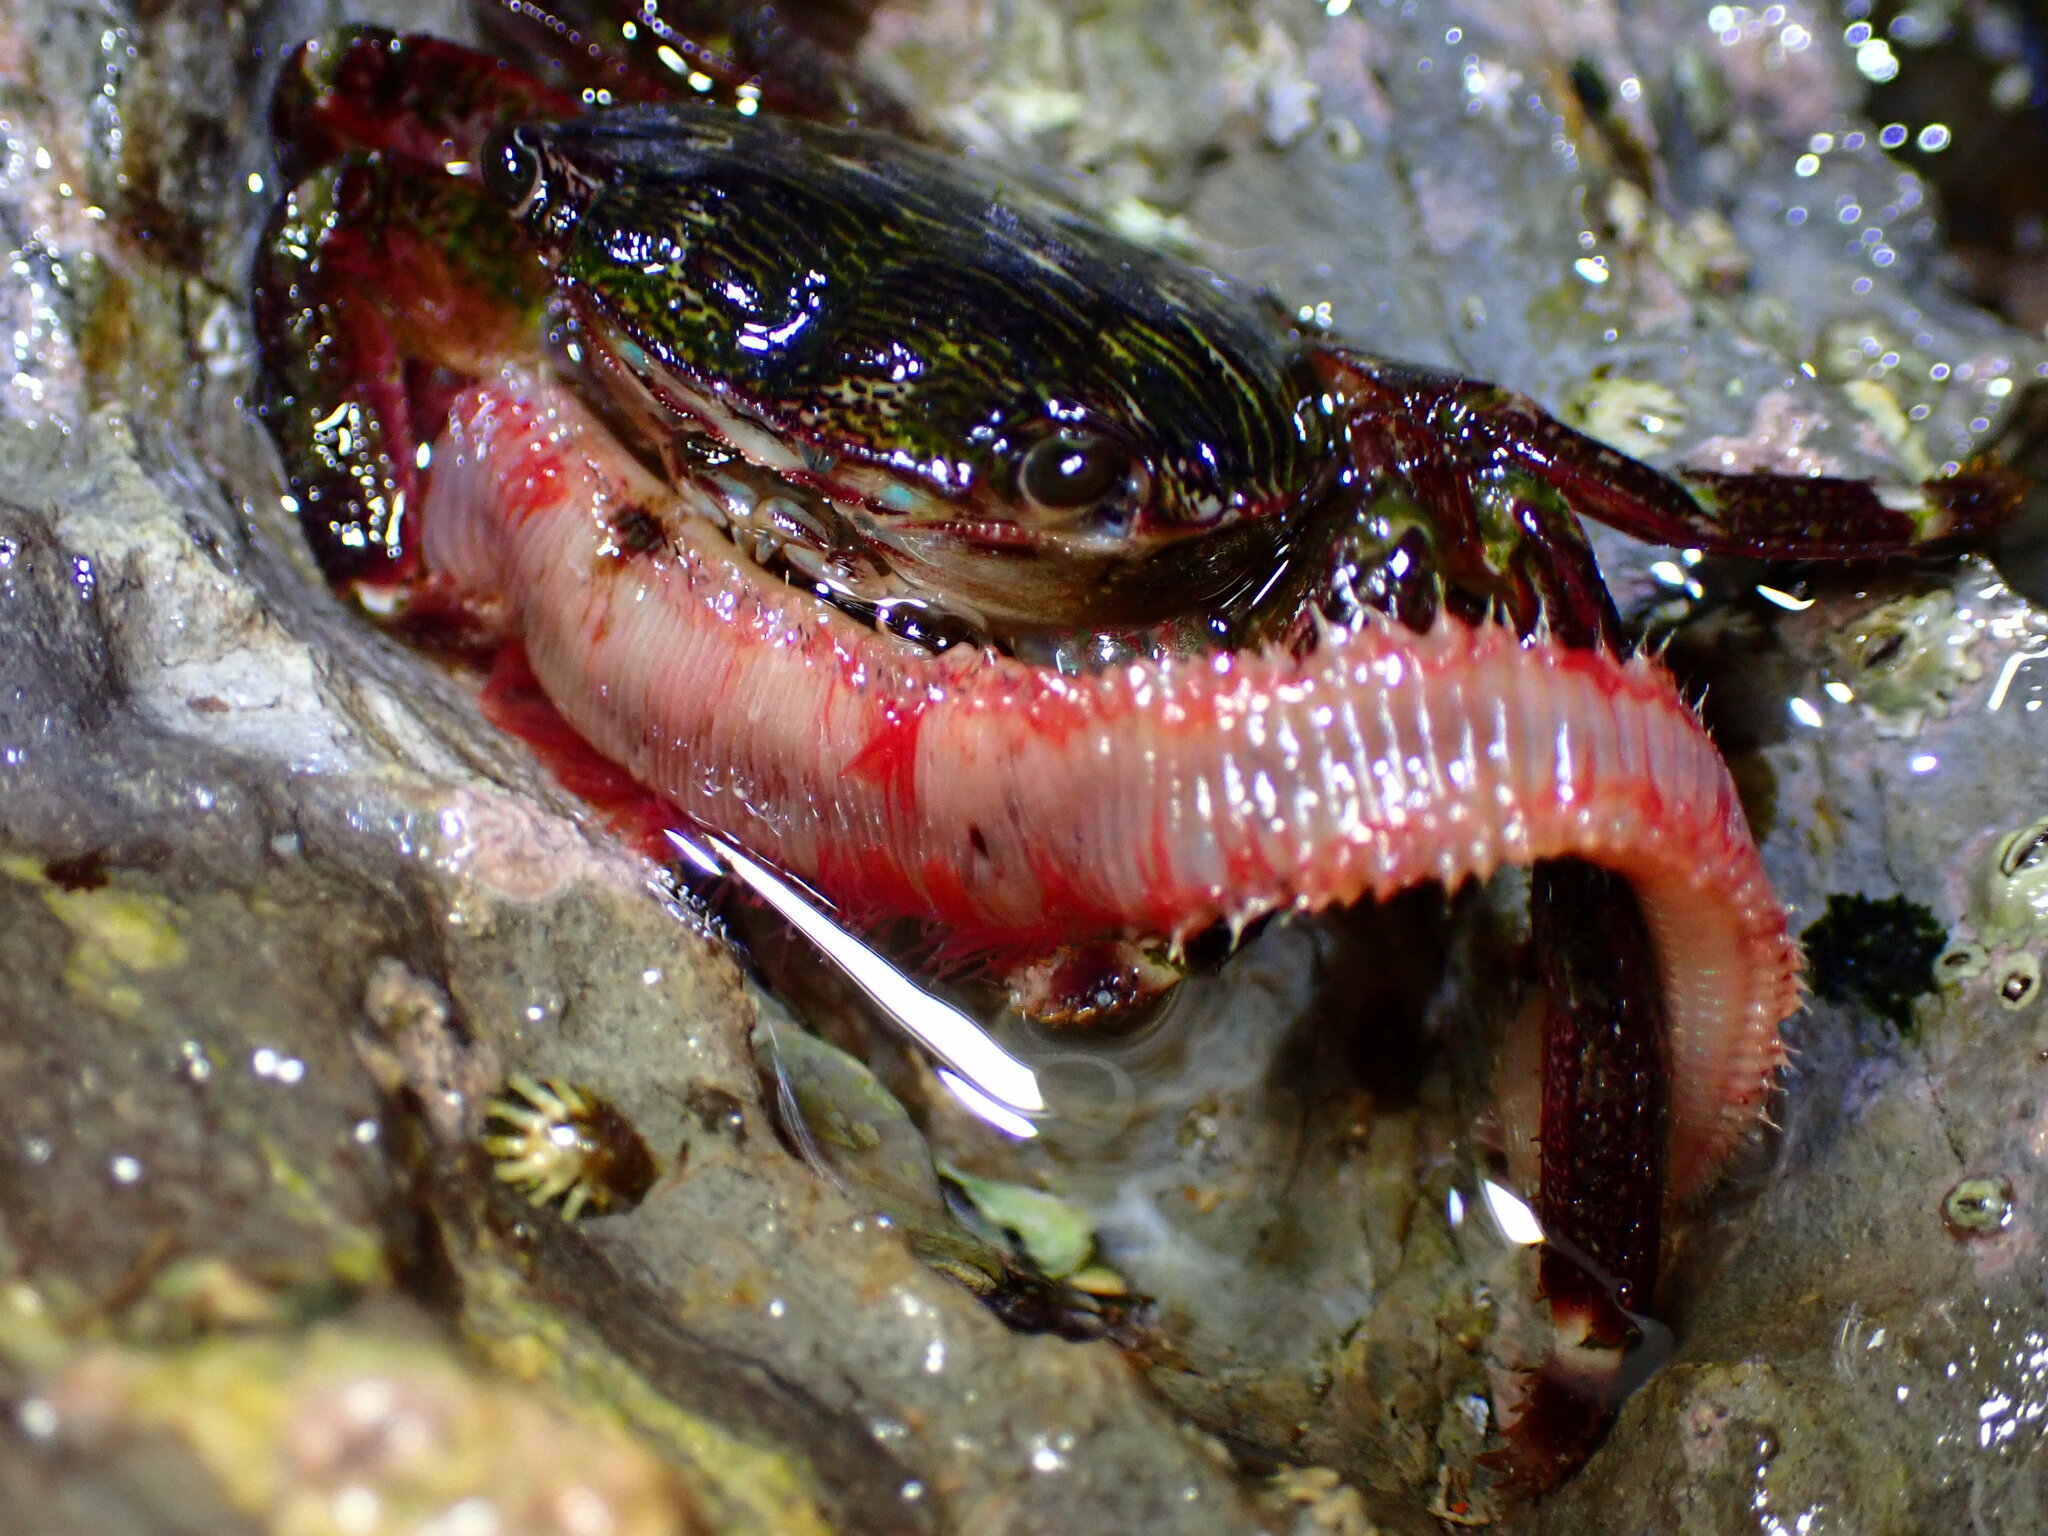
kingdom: Animalia
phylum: Arthropoda
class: Malacostraca
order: Decapoda
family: Grapsidae
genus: Pachygrapsus
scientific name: Pachygrapsus crassipes
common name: Striped shore crab
